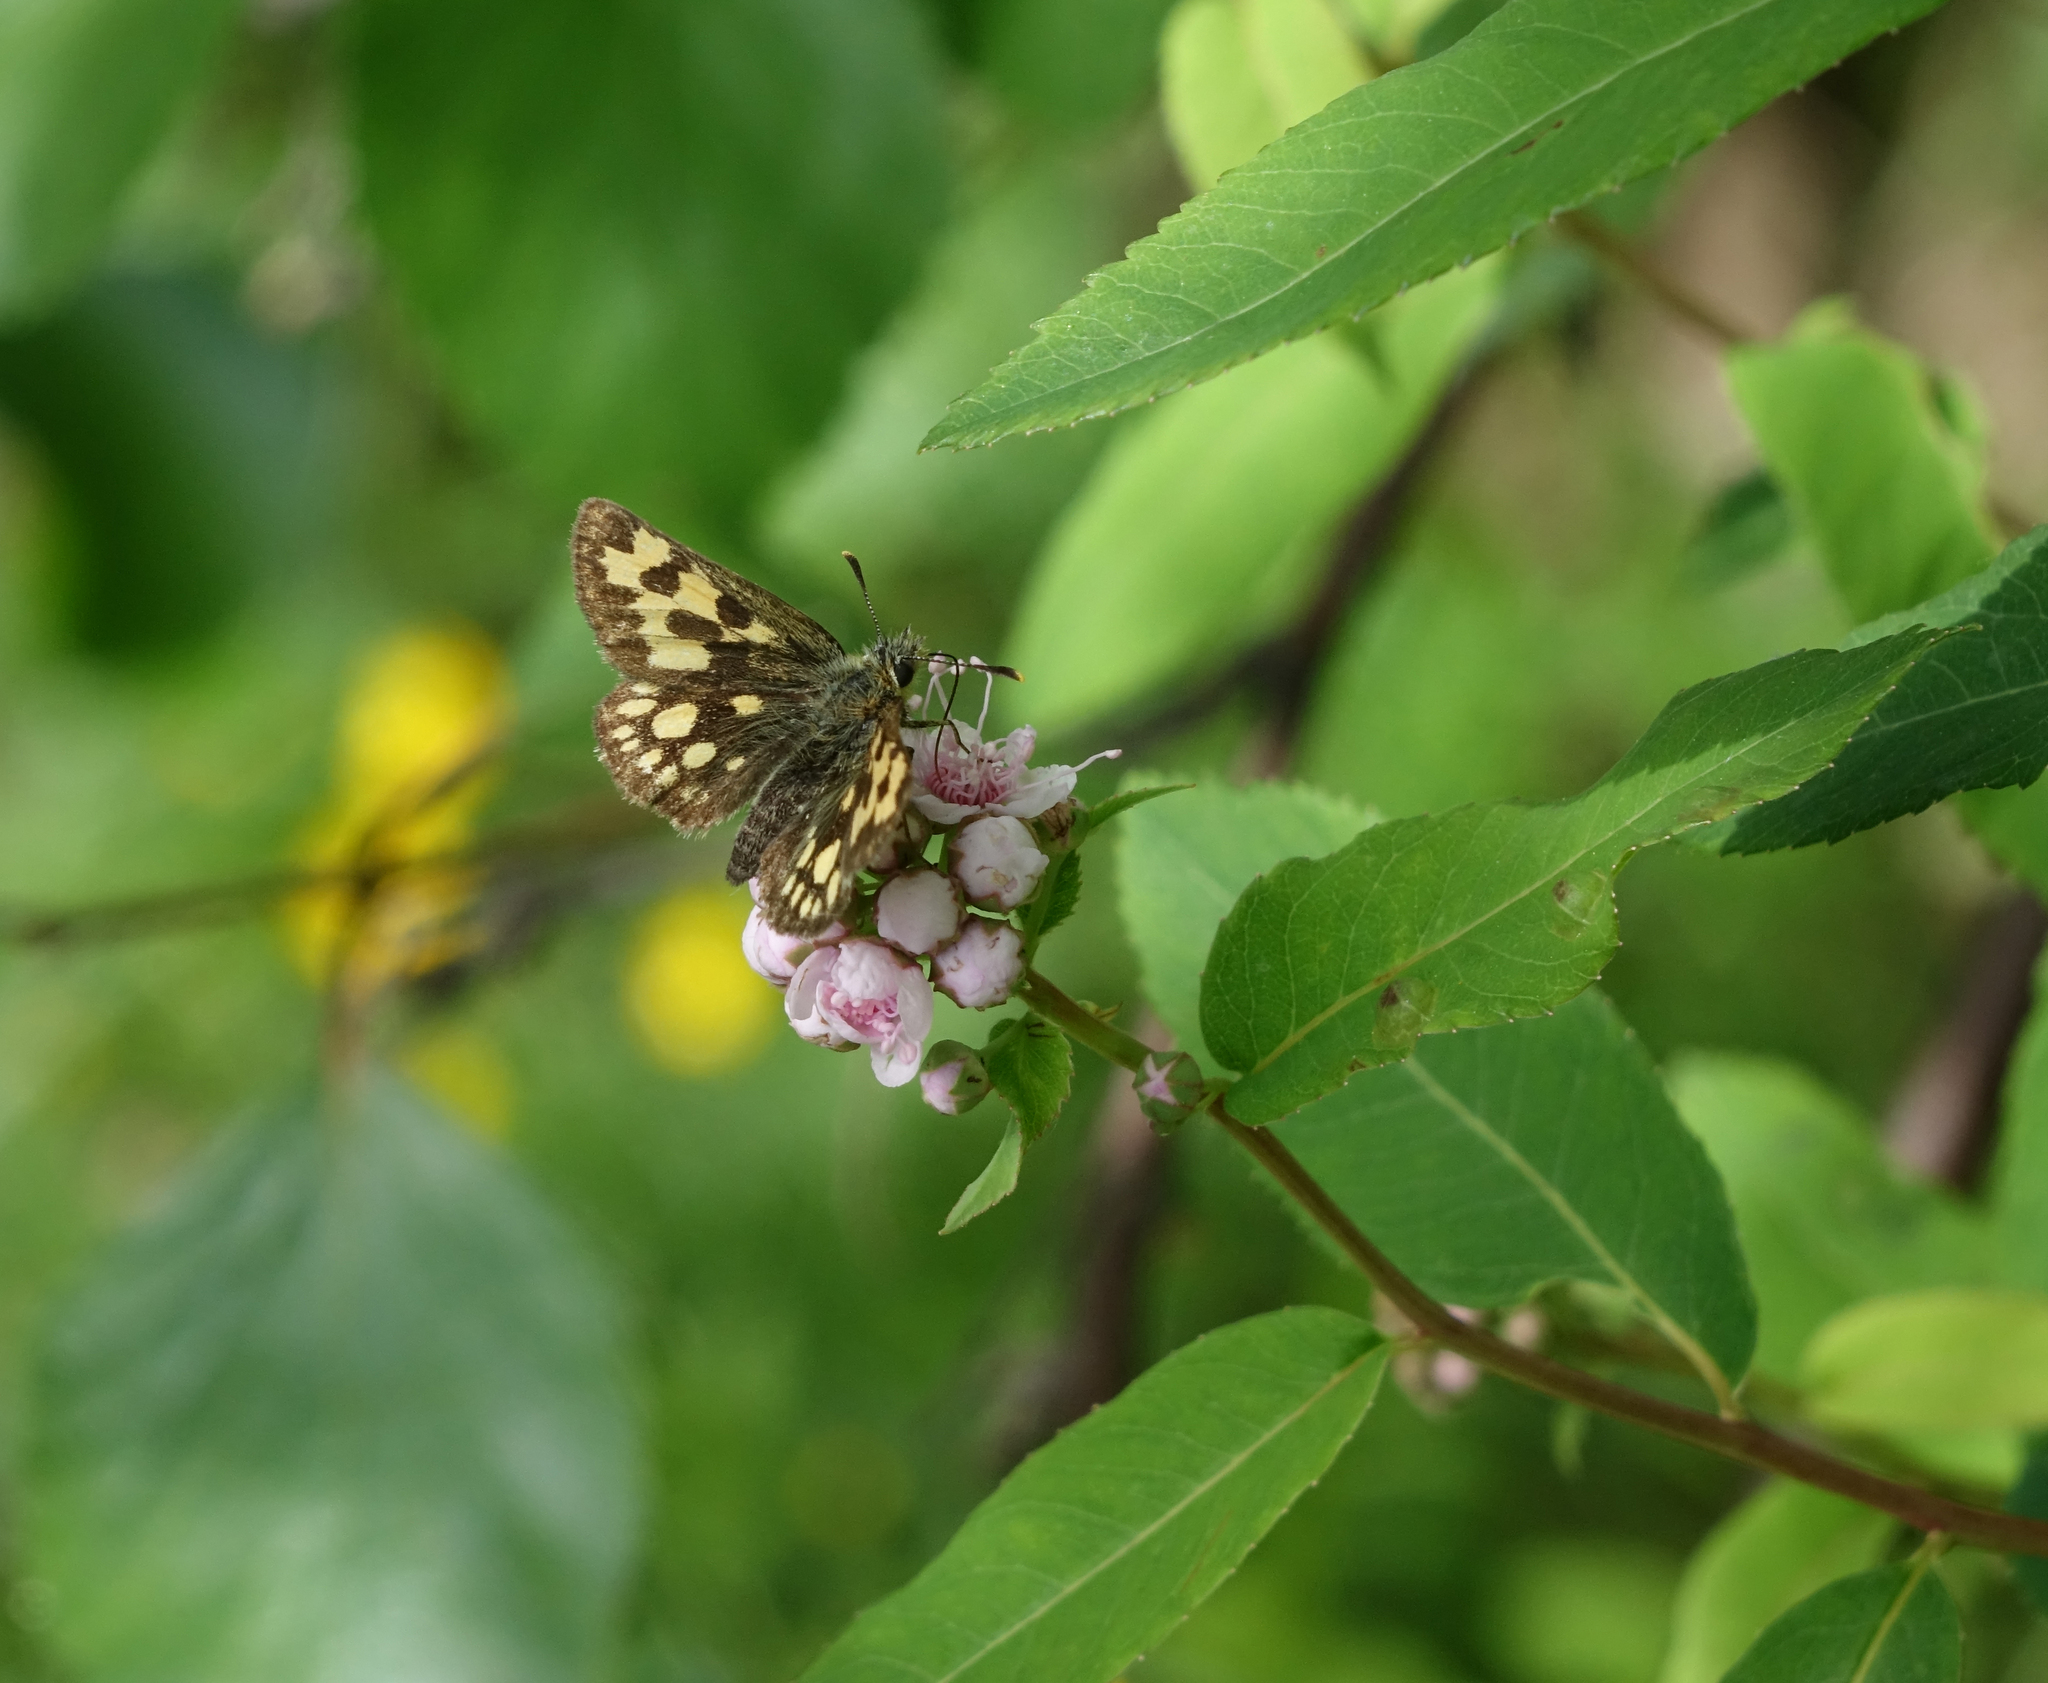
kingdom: Plantae
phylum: Tracheophyta
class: Magnoliopsida
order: Rosales
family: Rosaceae
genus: Spiraea
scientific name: Spiraea salicifolia
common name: Bridewort
